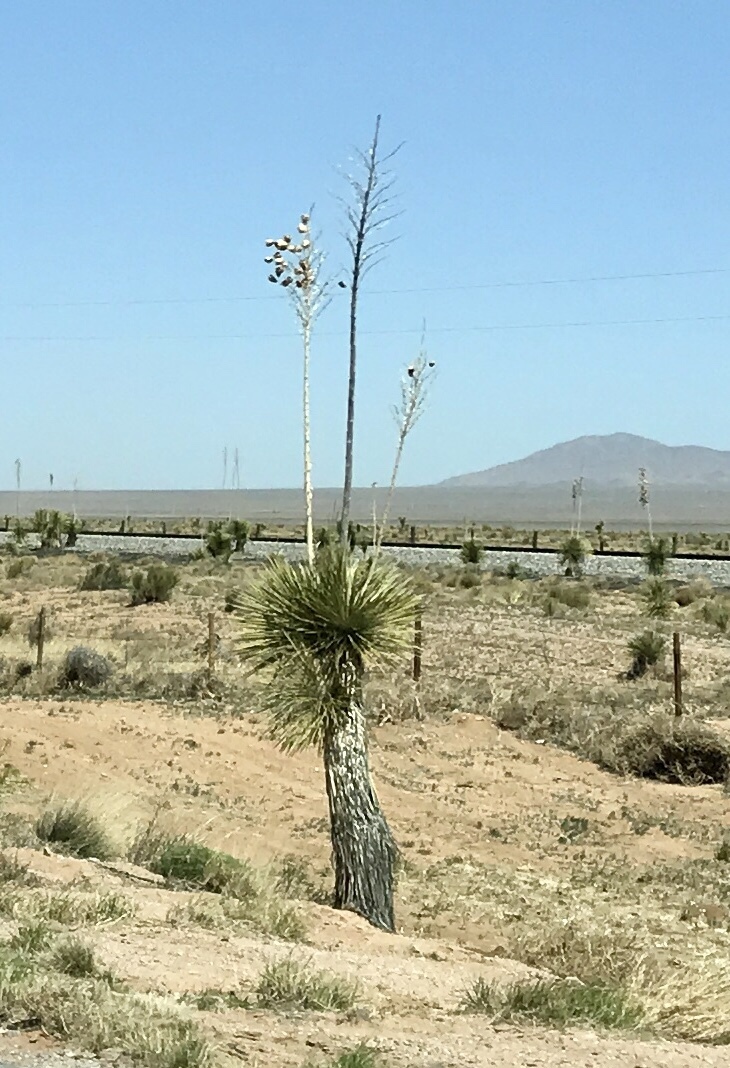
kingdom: Plantae
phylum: Tracheophyta
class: Liliopsida
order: Asparagales
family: Asparagaceae
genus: Yucca
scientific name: Yucca elata
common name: Palmella
